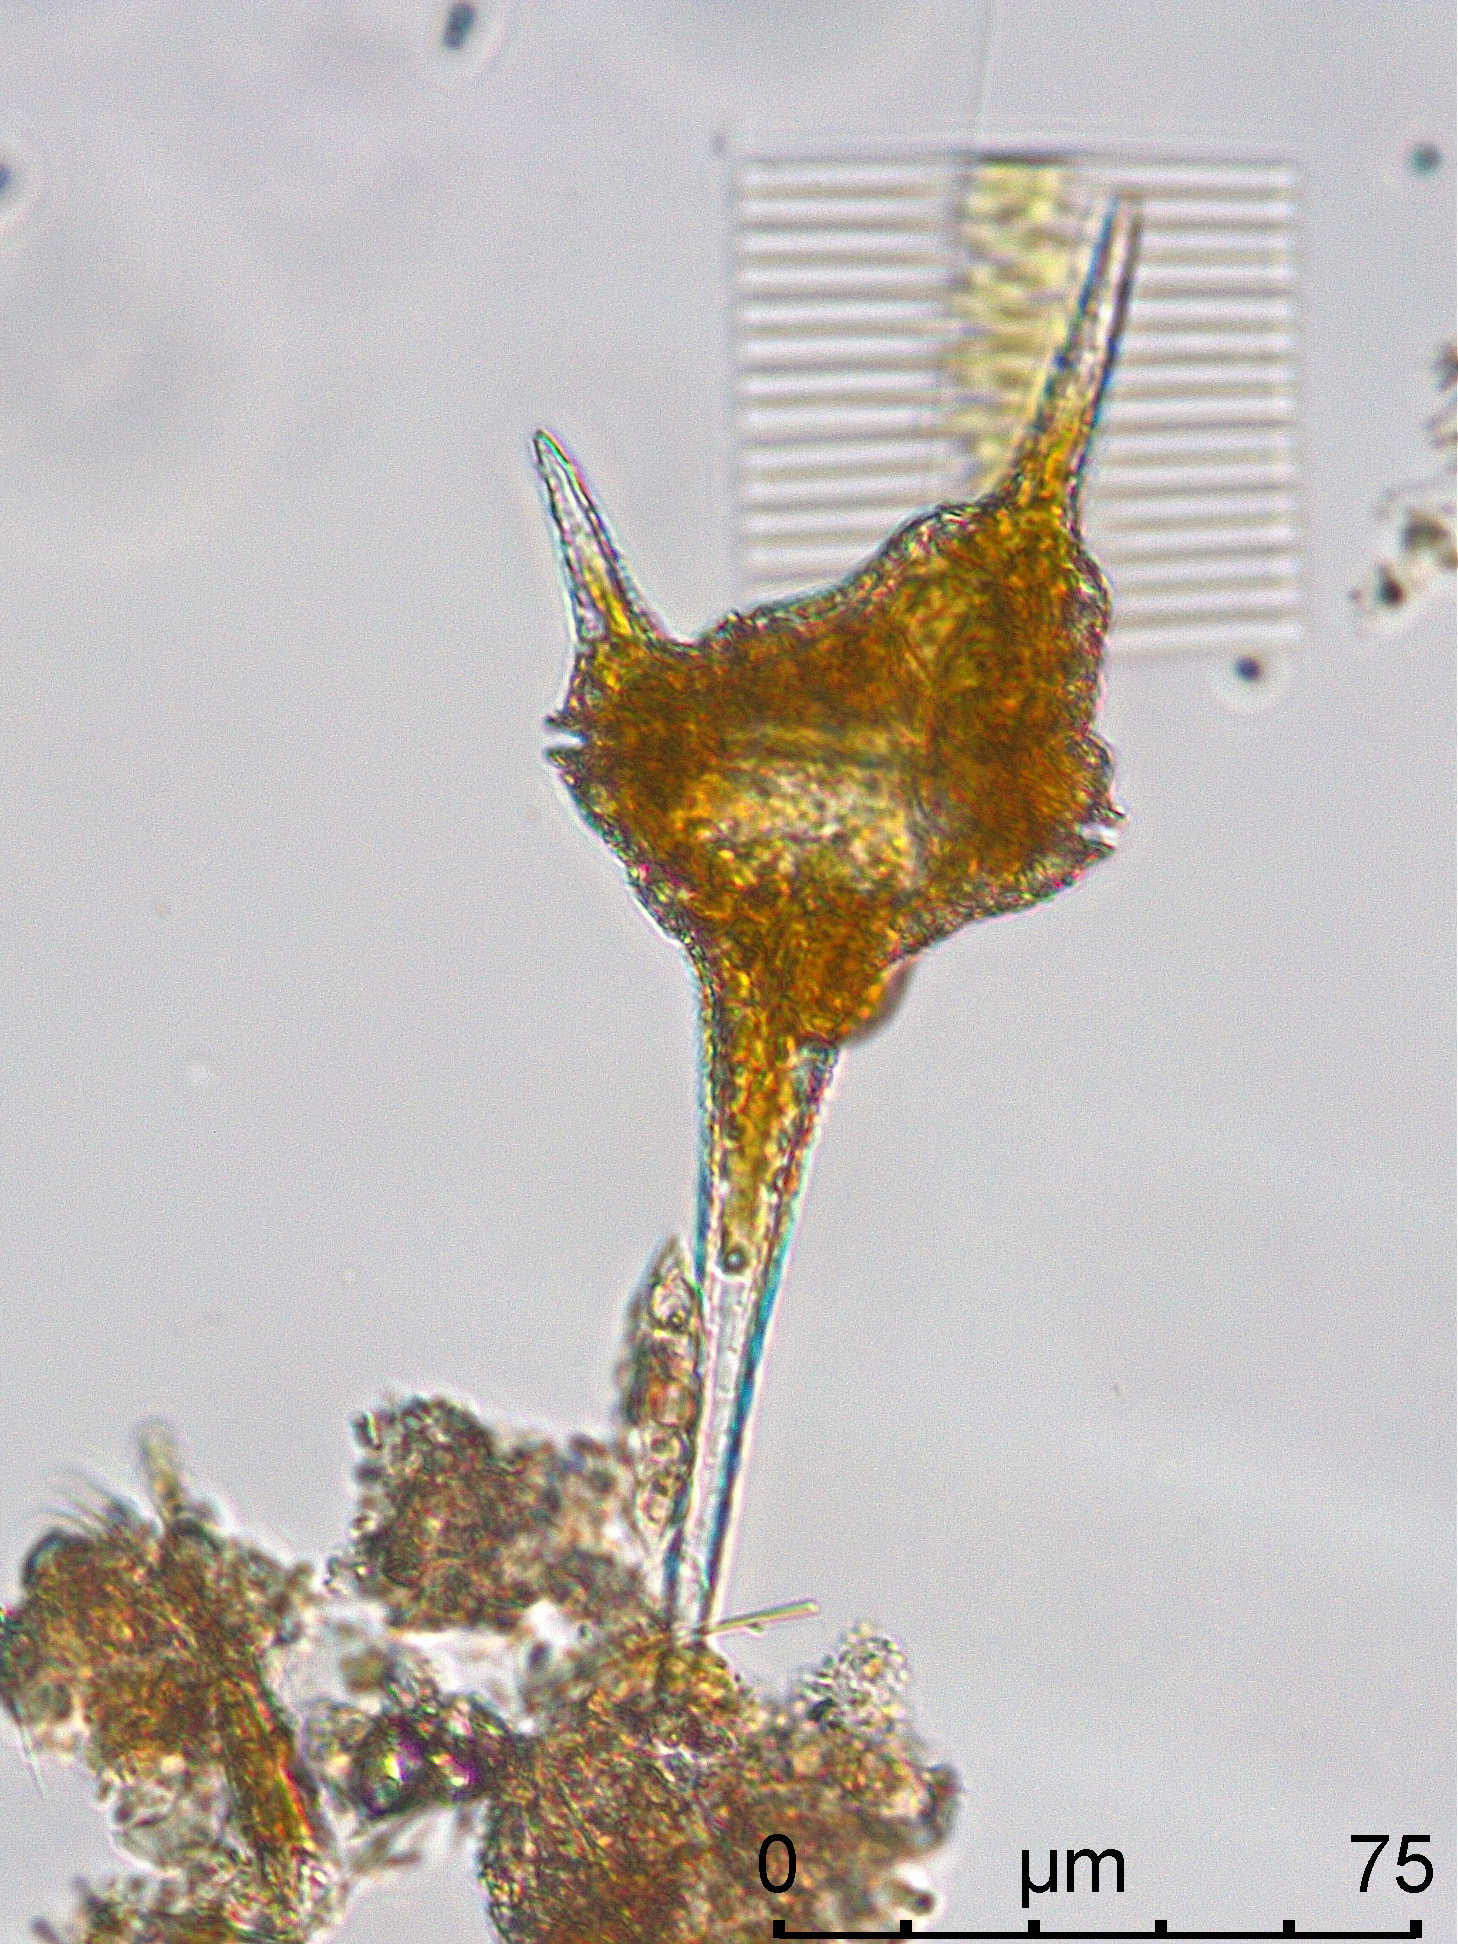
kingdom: Chromista
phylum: Myzozoa
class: Dinophyceae
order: Gonyaulacales
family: Ceratiaceae
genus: Ceratium
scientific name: Ceratium hirundinella
